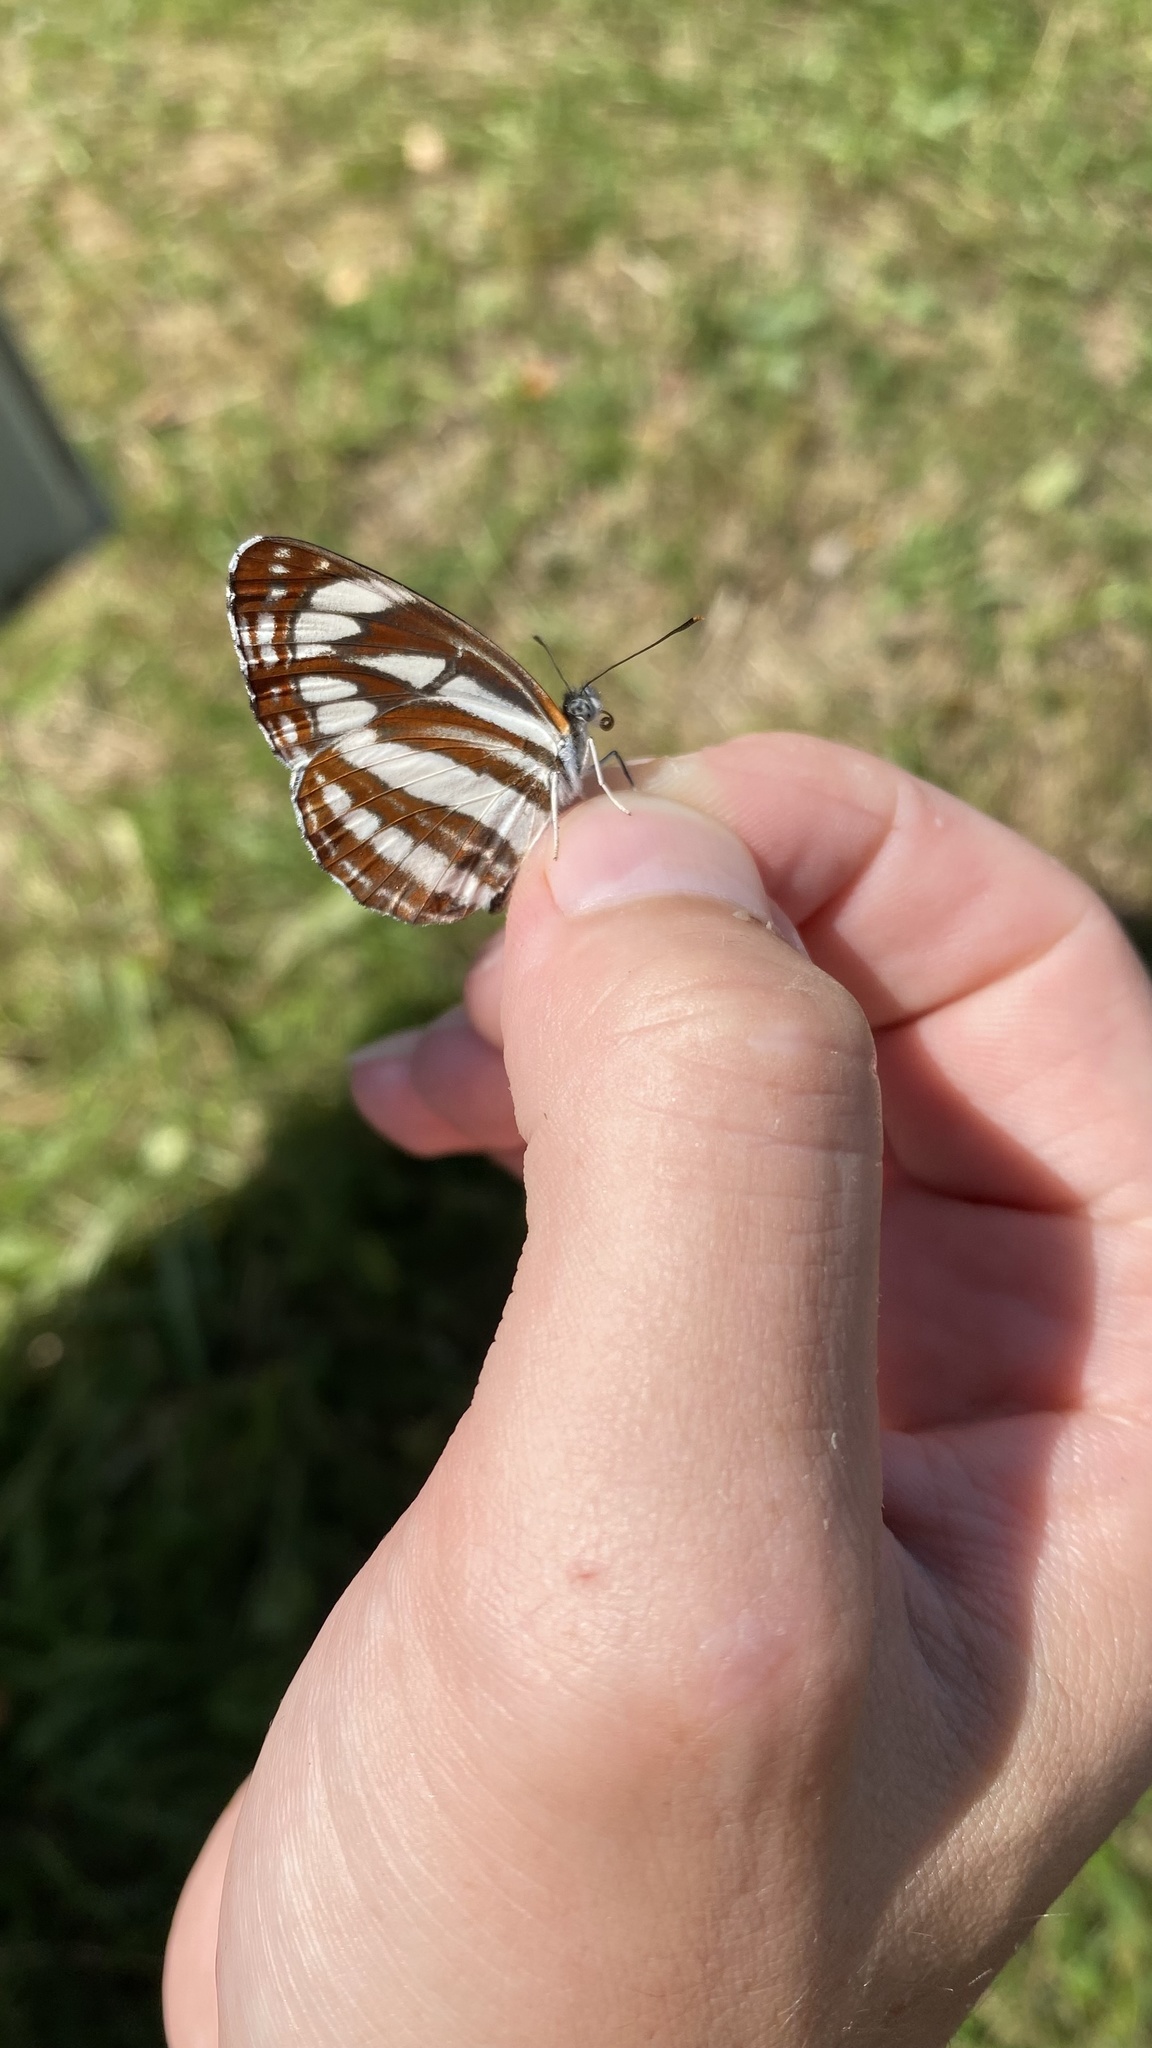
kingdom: Animalia
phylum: Arthropoda
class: Insecta
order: Lepidoptera
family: Nymphalidae
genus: Neptis
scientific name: Neptis sappho
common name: Common glider
